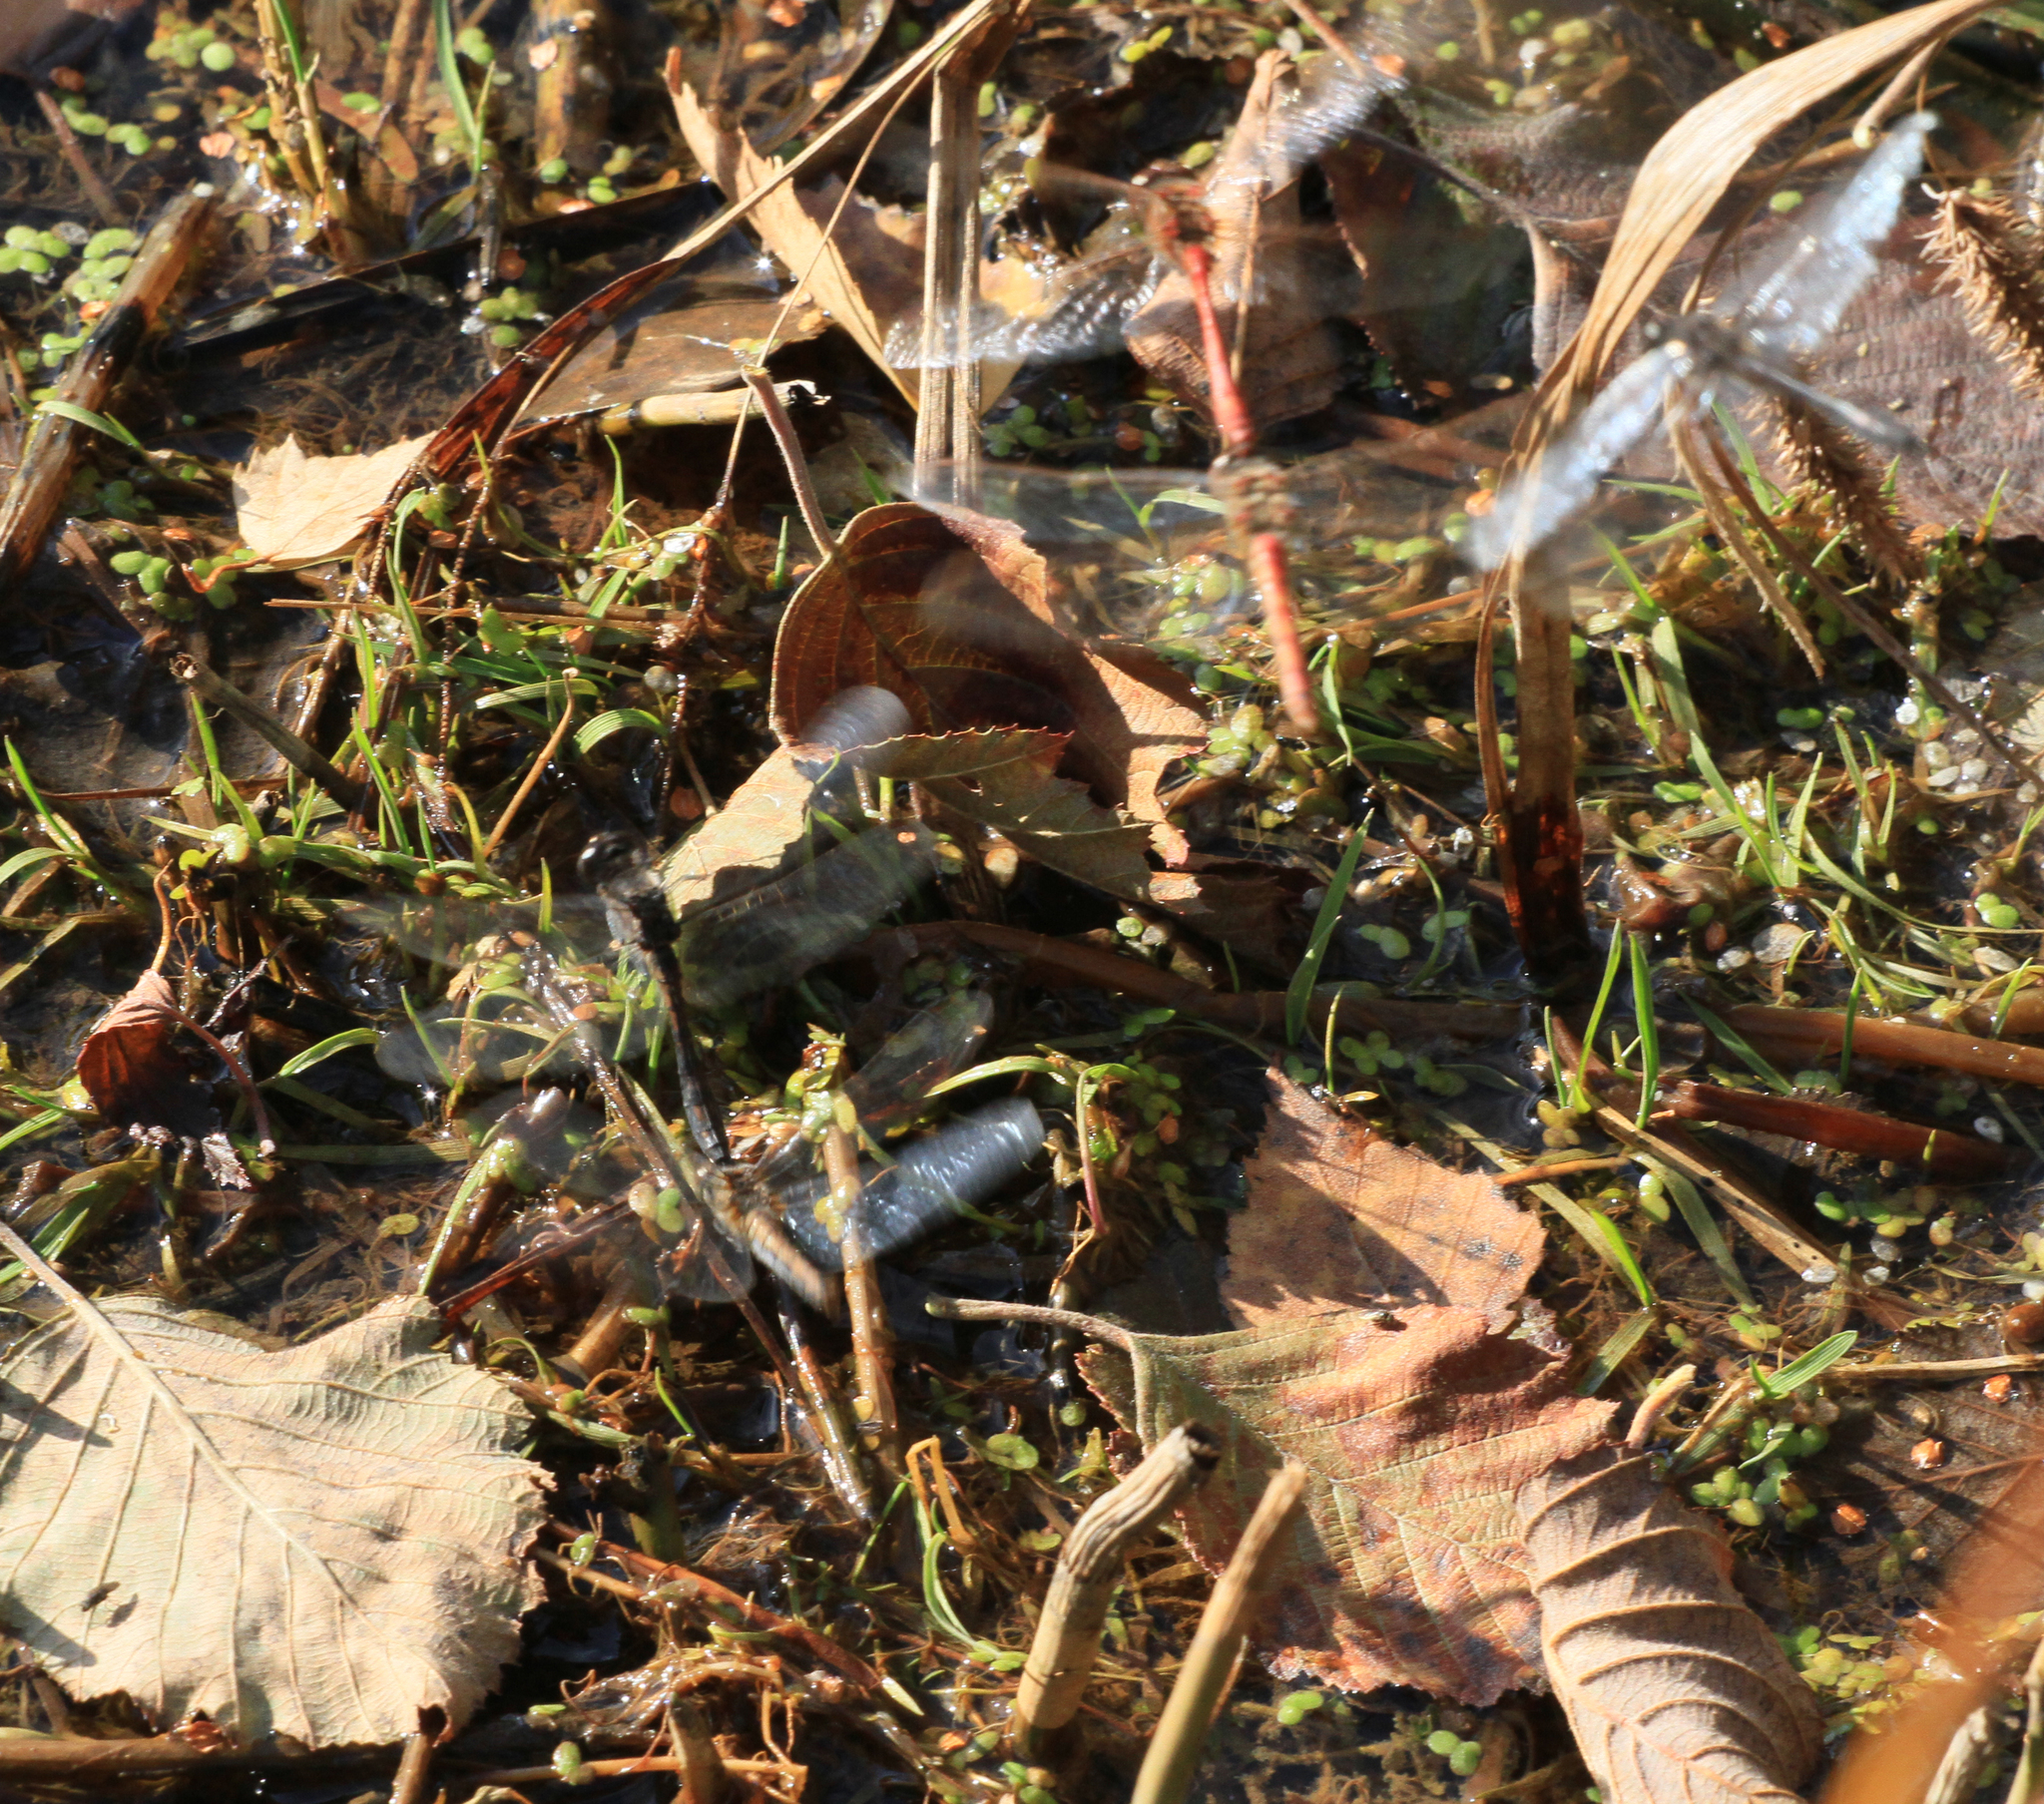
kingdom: Animalia
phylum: Arthropoda
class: Insecta
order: Odonata
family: Libellulidae
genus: Sympetrum
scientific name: Sympetrum danae
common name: Black darter
